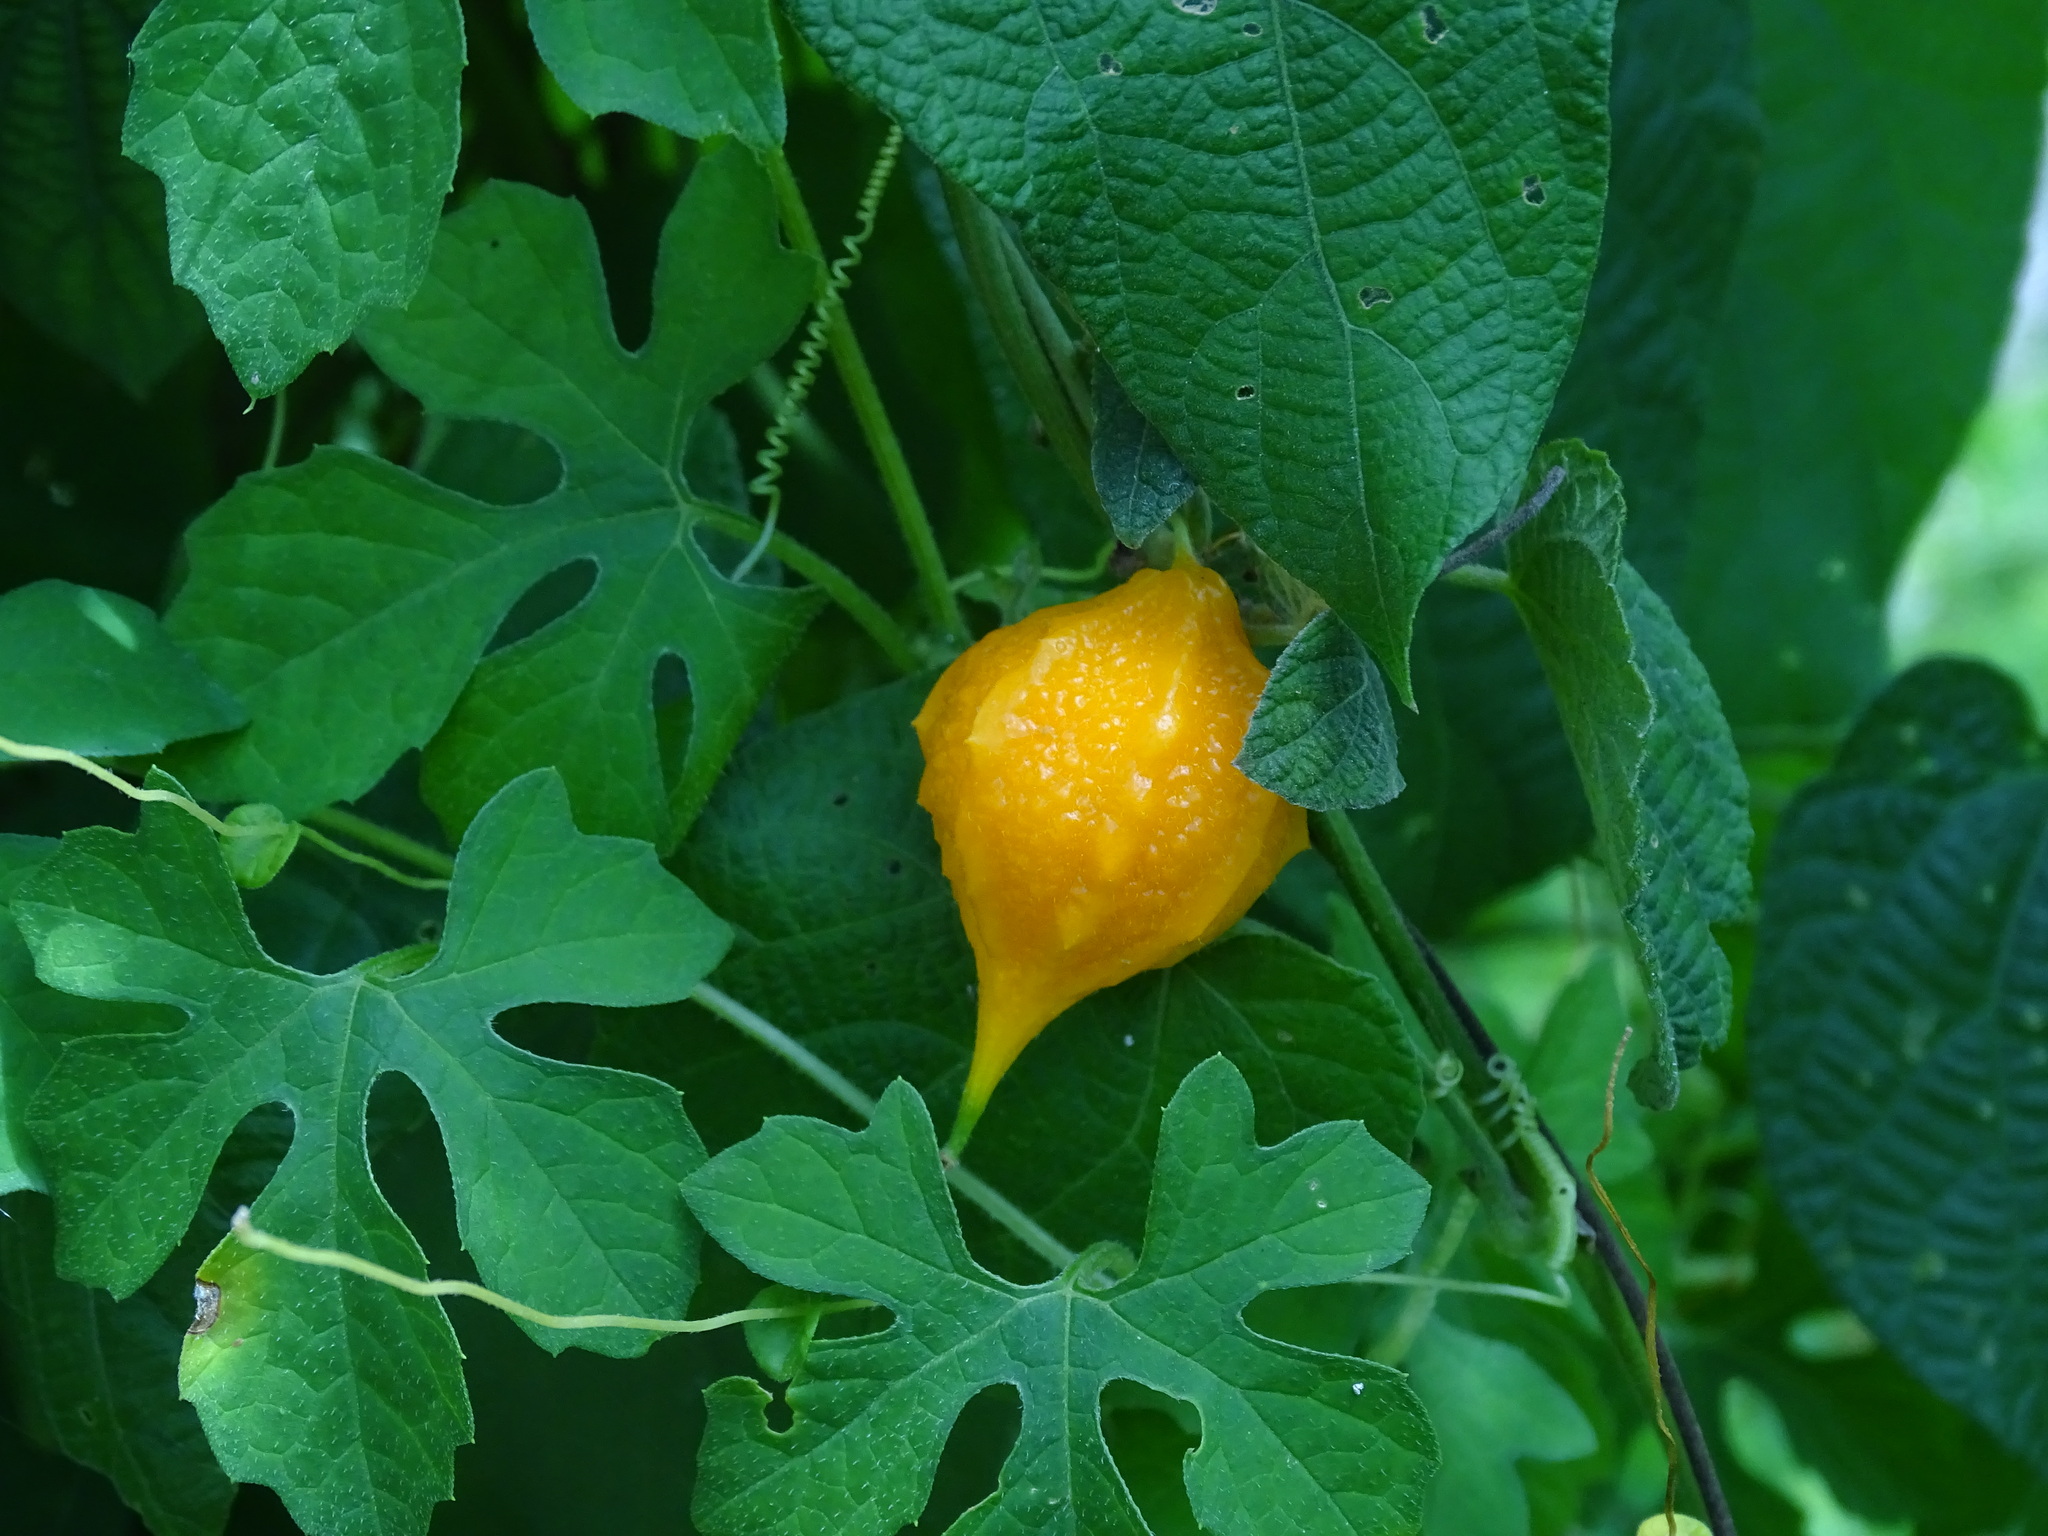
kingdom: Plantae
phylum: Tracheophyta
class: Magnoliopsida
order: Cucurbitales
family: Cucurbitaceae
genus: Momordica
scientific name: Momordica charantia
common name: Balsampear
